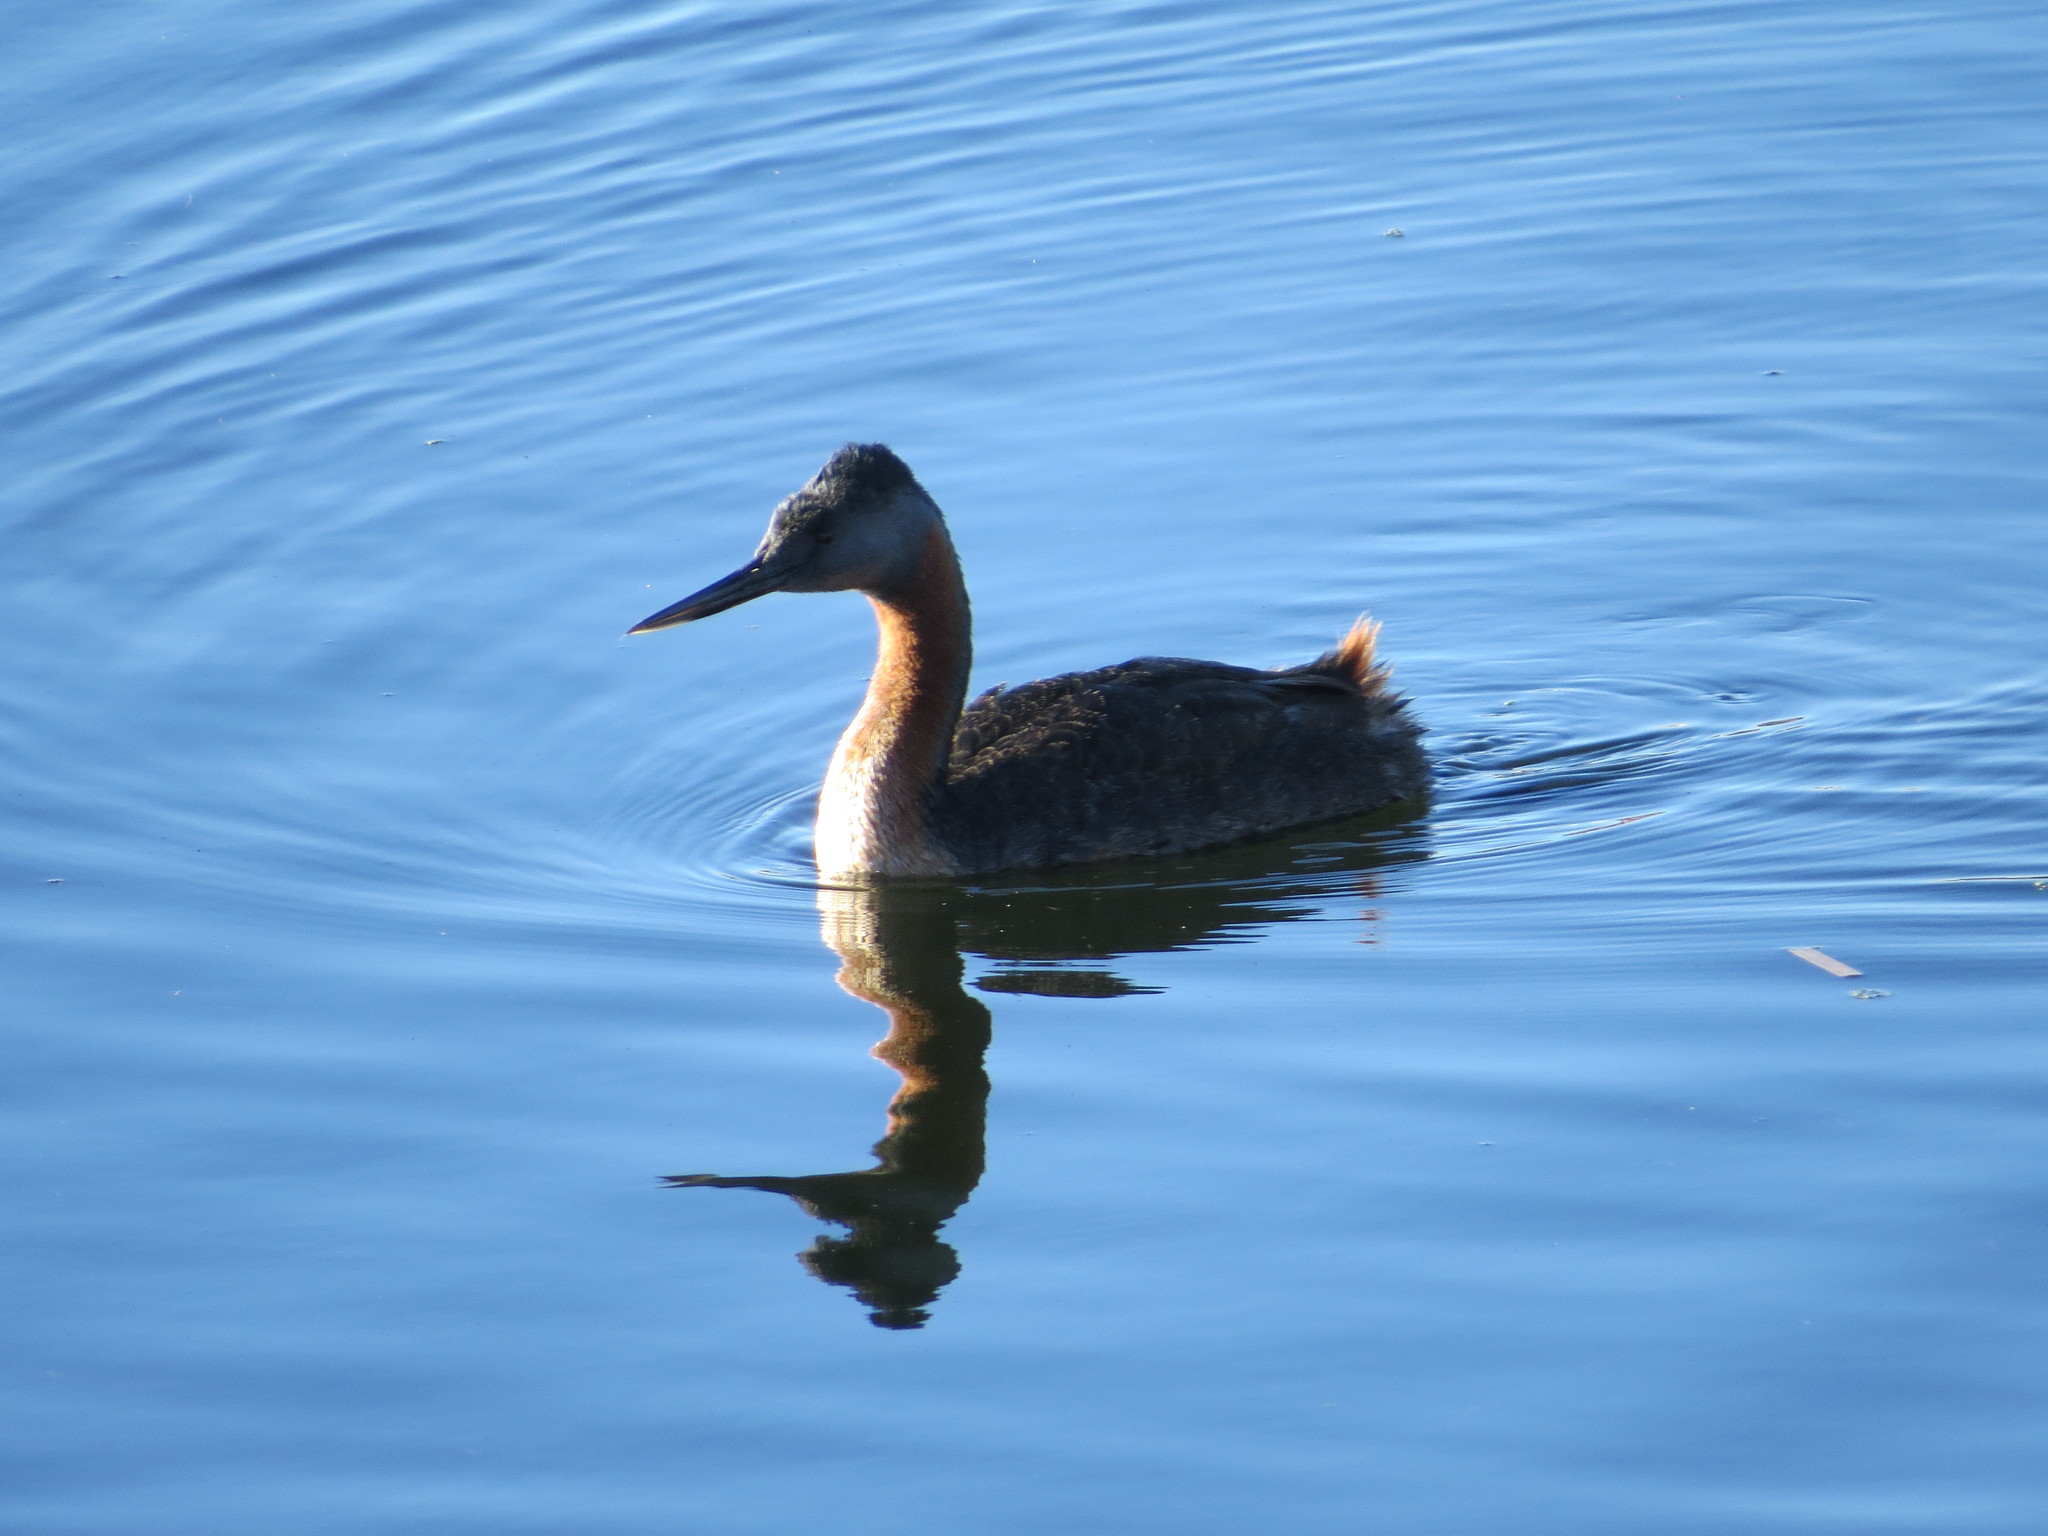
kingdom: Animalia
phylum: Chordata
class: Aves
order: Podicipediformes
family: Podicipedidae
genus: Podiceps
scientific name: Podiceps major
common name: Great grebe
